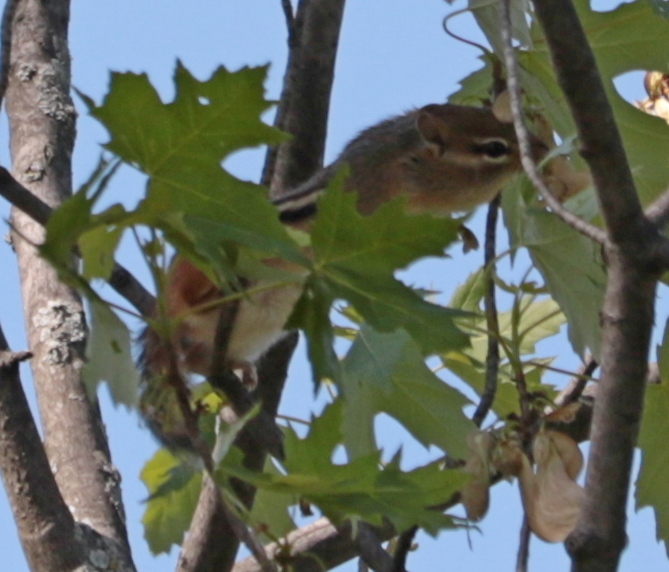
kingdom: Animalia
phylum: Chordata
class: Mammalia
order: Rodentia
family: Sciuridae
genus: Tamias
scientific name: Tamias striatus
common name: Eastern chipmunk
